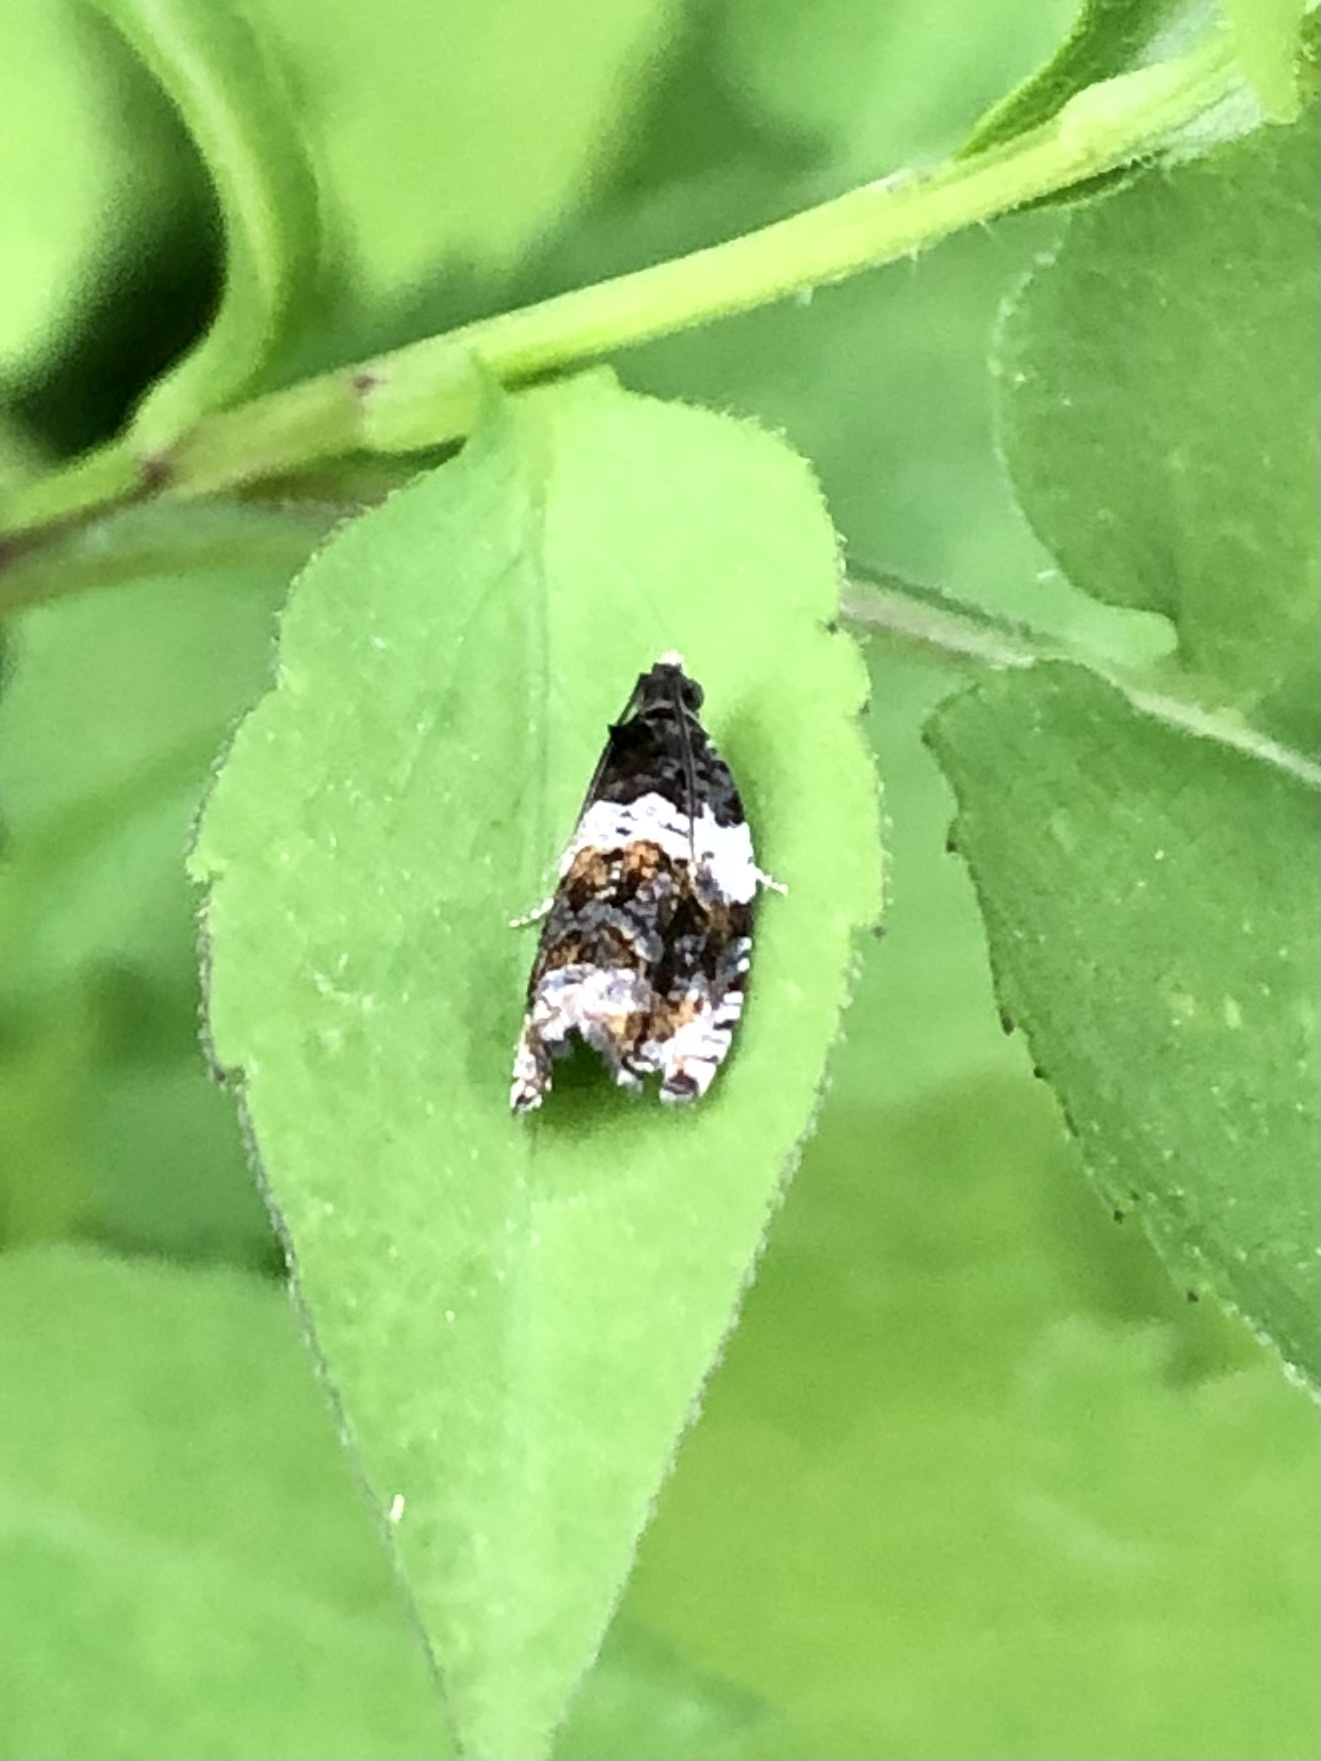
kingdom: Animalia
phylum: Arthropoda
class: Insecta
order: Lepidoptera
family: Tortricidae
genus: Olethreutes
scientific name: Olethreutes fasciatana
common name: Banded olethreutes moth
